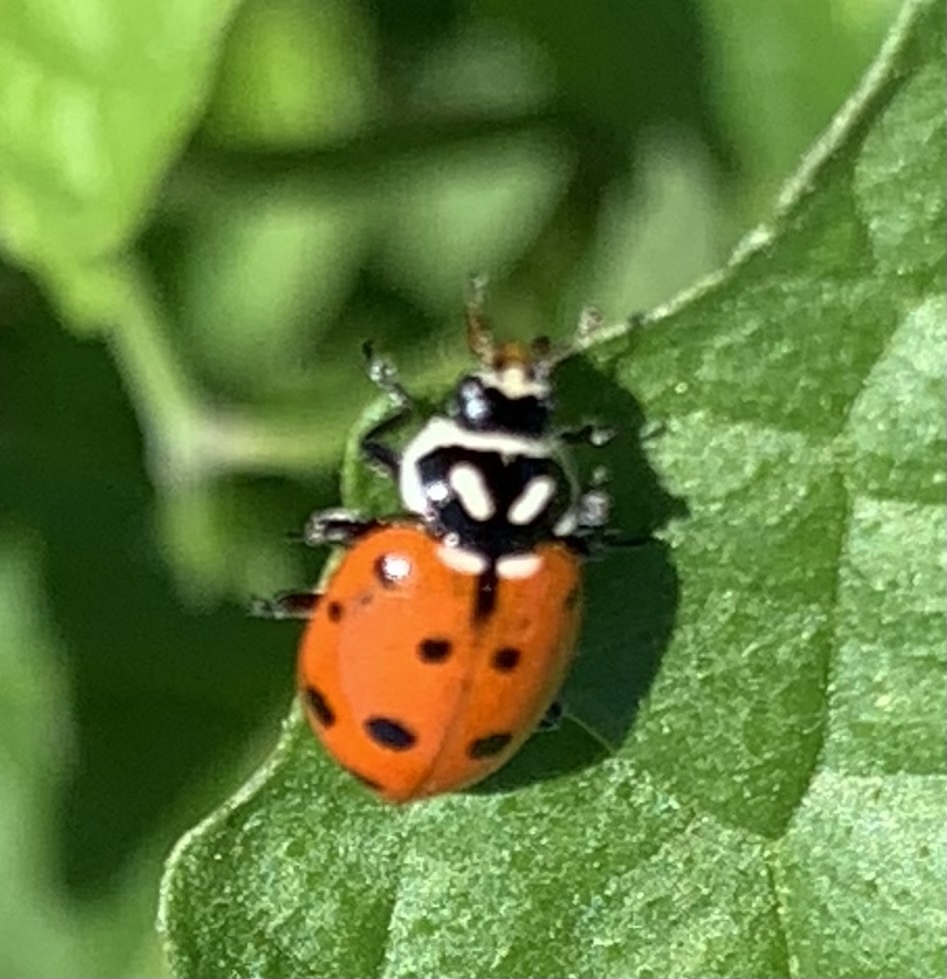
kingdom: Animalia
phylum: Arthropoda
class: Insecta
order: Coleoptera
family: Coccinellidae
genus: Hippodamia
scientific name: Hippodamia convergens
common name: Convergent lady beetle
